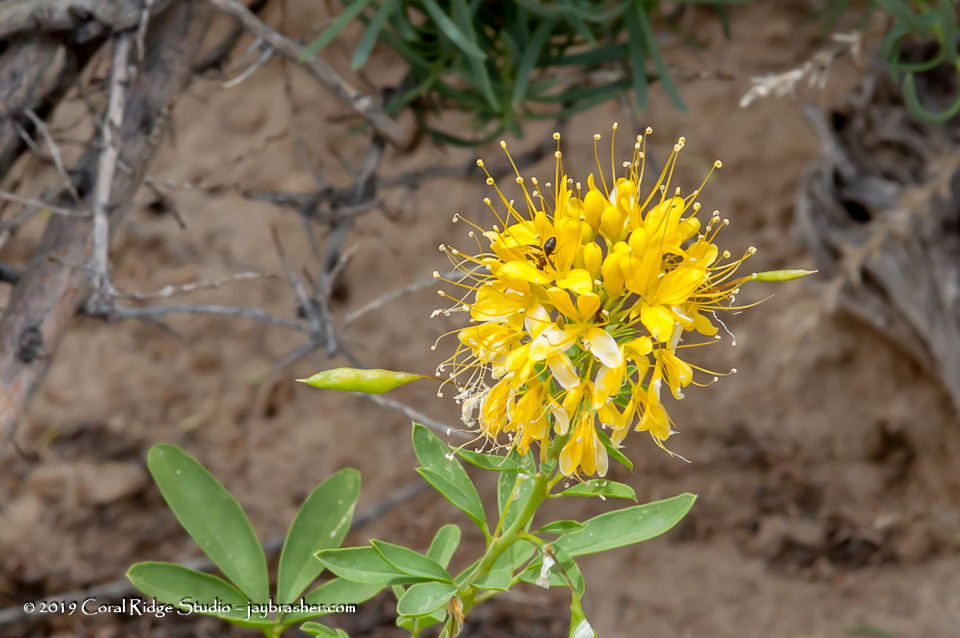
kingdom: Plantae
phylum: Tracheophyta
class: Magnoliopsida
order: Brassicales
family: Cleomaceae
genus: Cleomella
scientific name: Cleomella lutea
